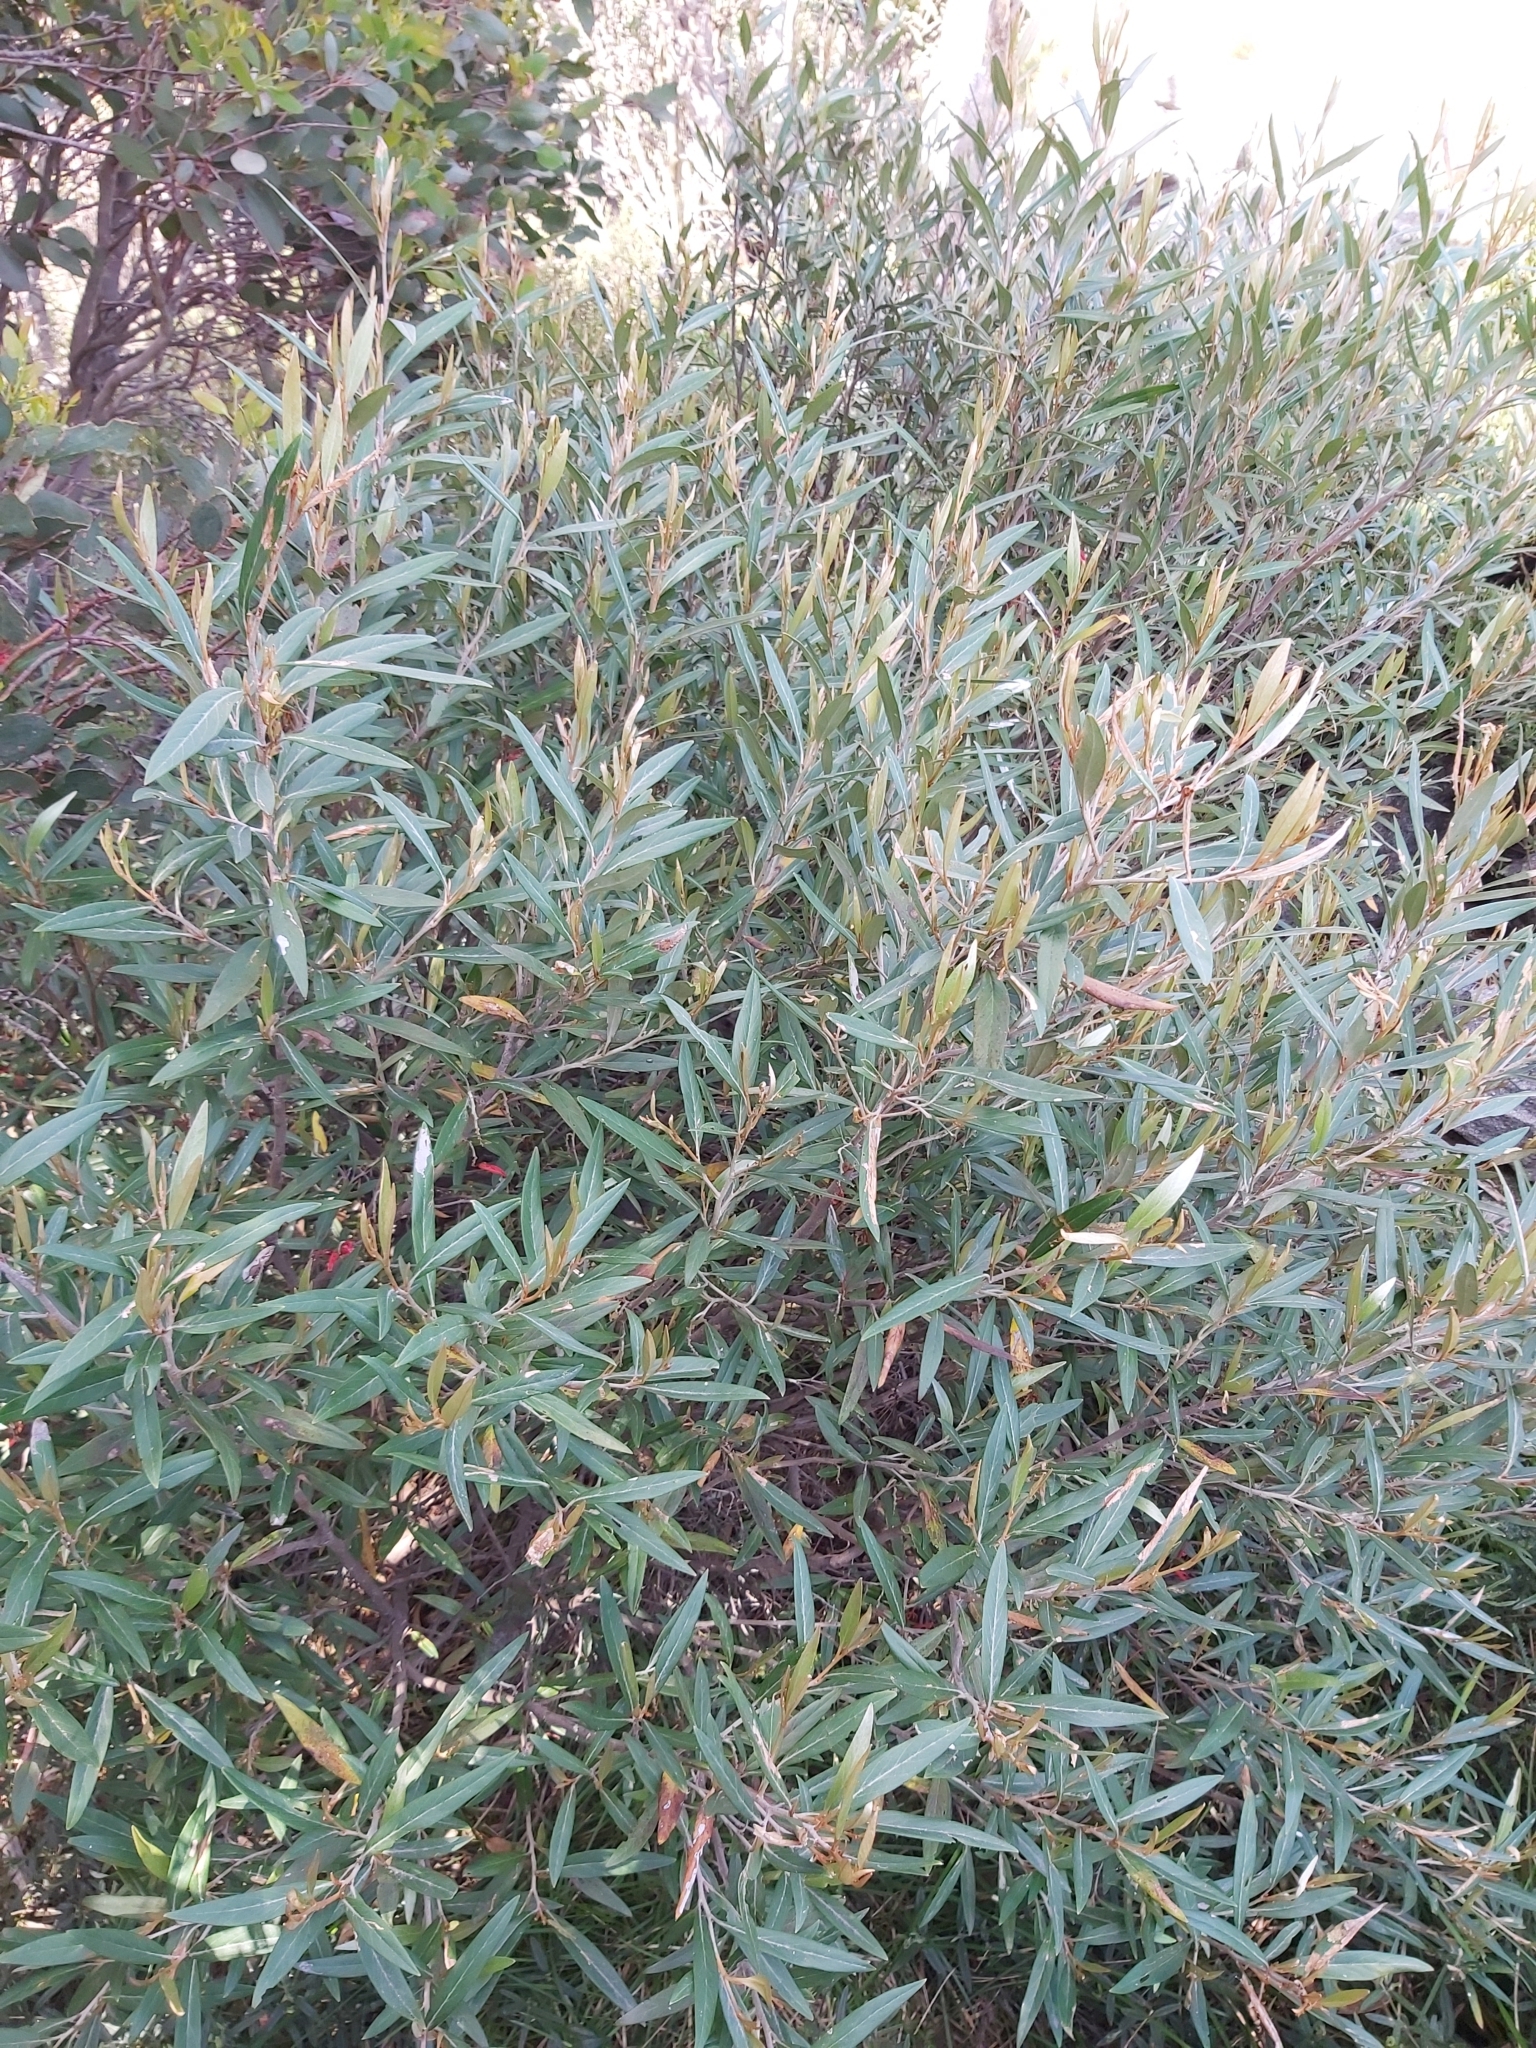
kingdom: Plantae
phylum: Tracheophyta
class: Magnoliopsida
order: Proteales
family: Proteaceae
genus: Grevillea
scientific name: Grevillea victoriae
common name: Royal grevillea
